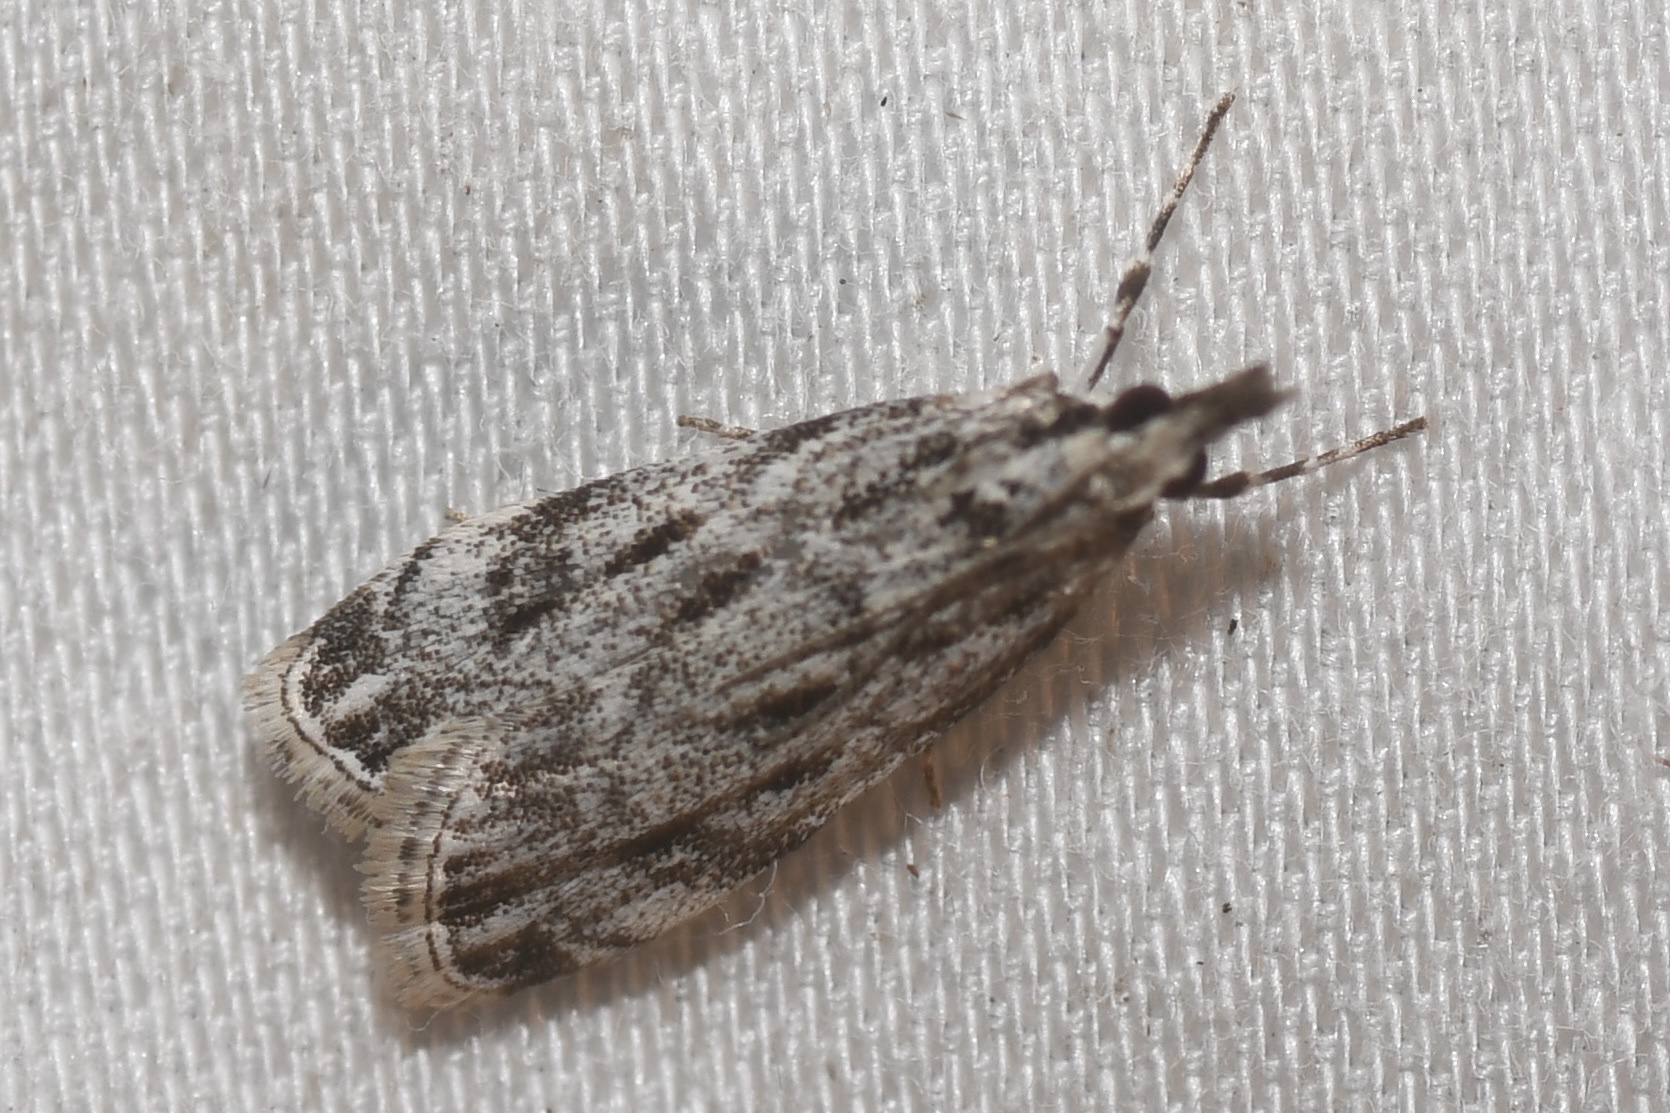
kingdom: Animalia
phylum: Arthropoda
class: Insecta
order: Lepidoptera
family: Crambidae
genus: Eudonia
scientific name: Eudonia strigalis
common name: Striped eudonia moth
